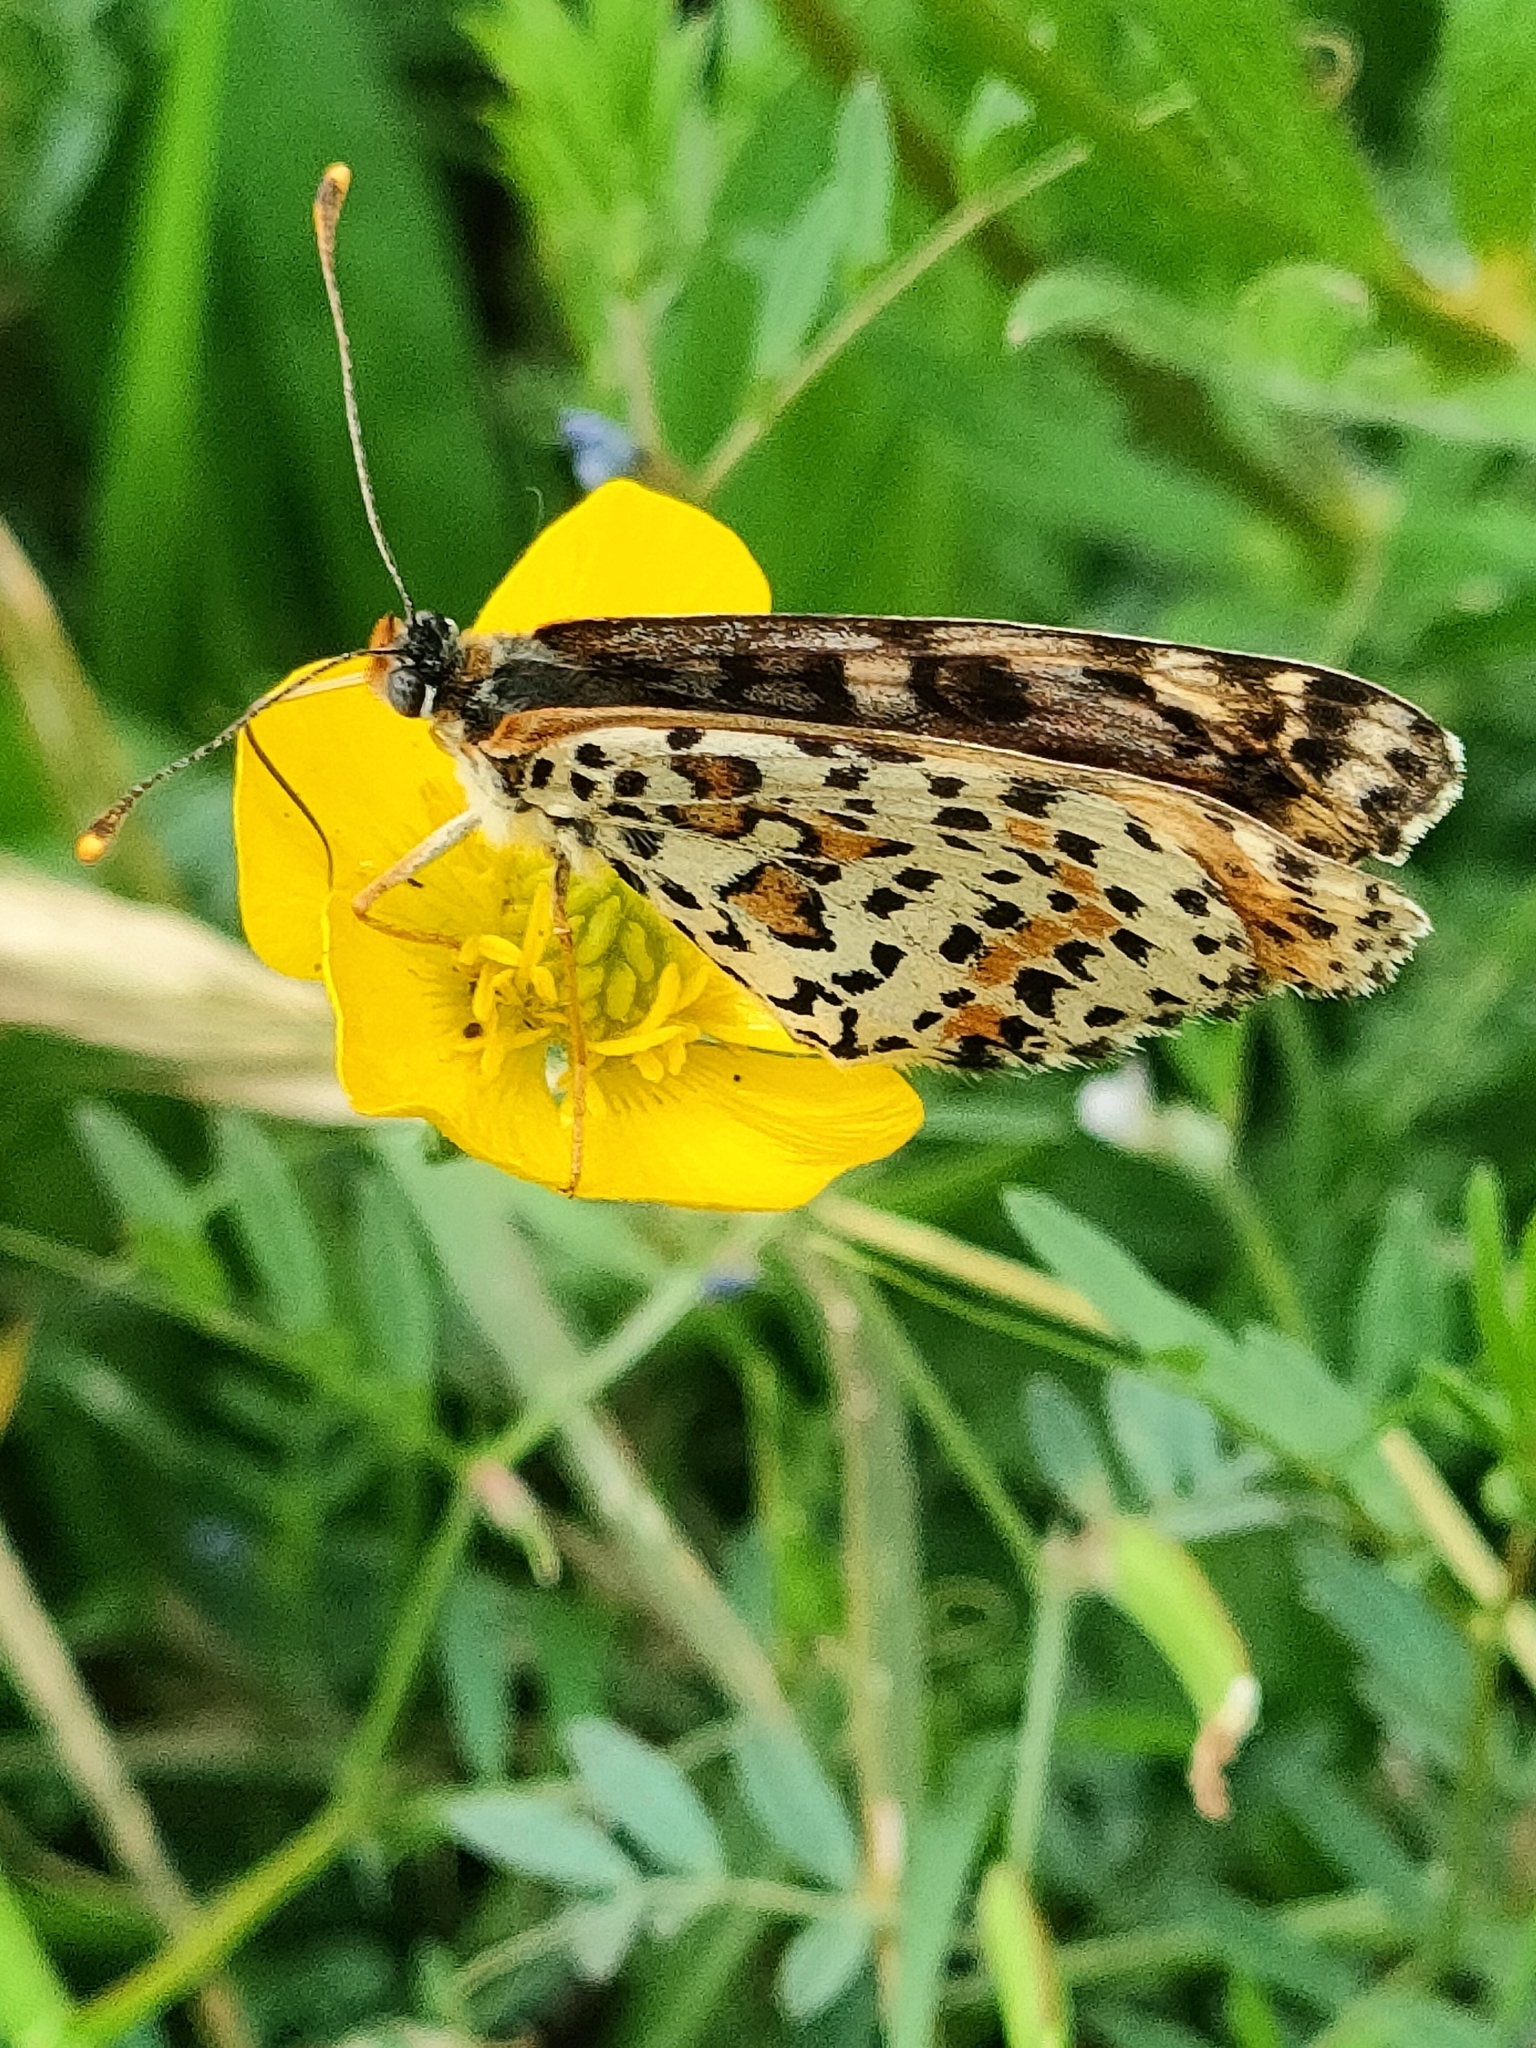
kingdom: Animalia
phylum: Arthropoda
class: Insecta
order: Lepidoptera
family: Nymphalidae
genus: Melitaea
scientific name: Melitaea didyma
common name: Spotted fritillary
